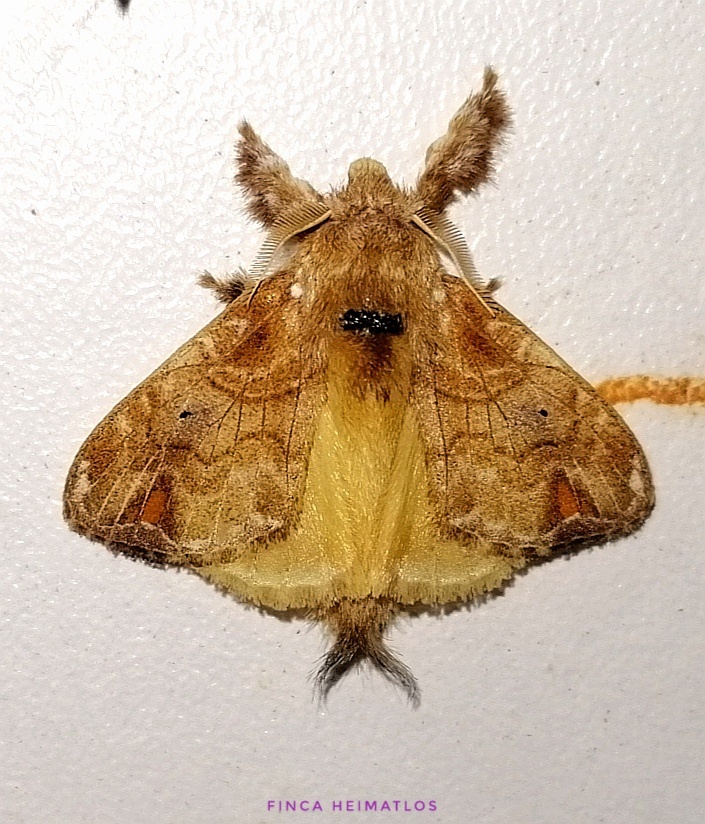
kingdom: Animalia
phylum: Arthropoda
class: Insecta
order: Lepidoptera
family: Lasiocampidae
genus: Nesara
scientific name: Nesara fumata
